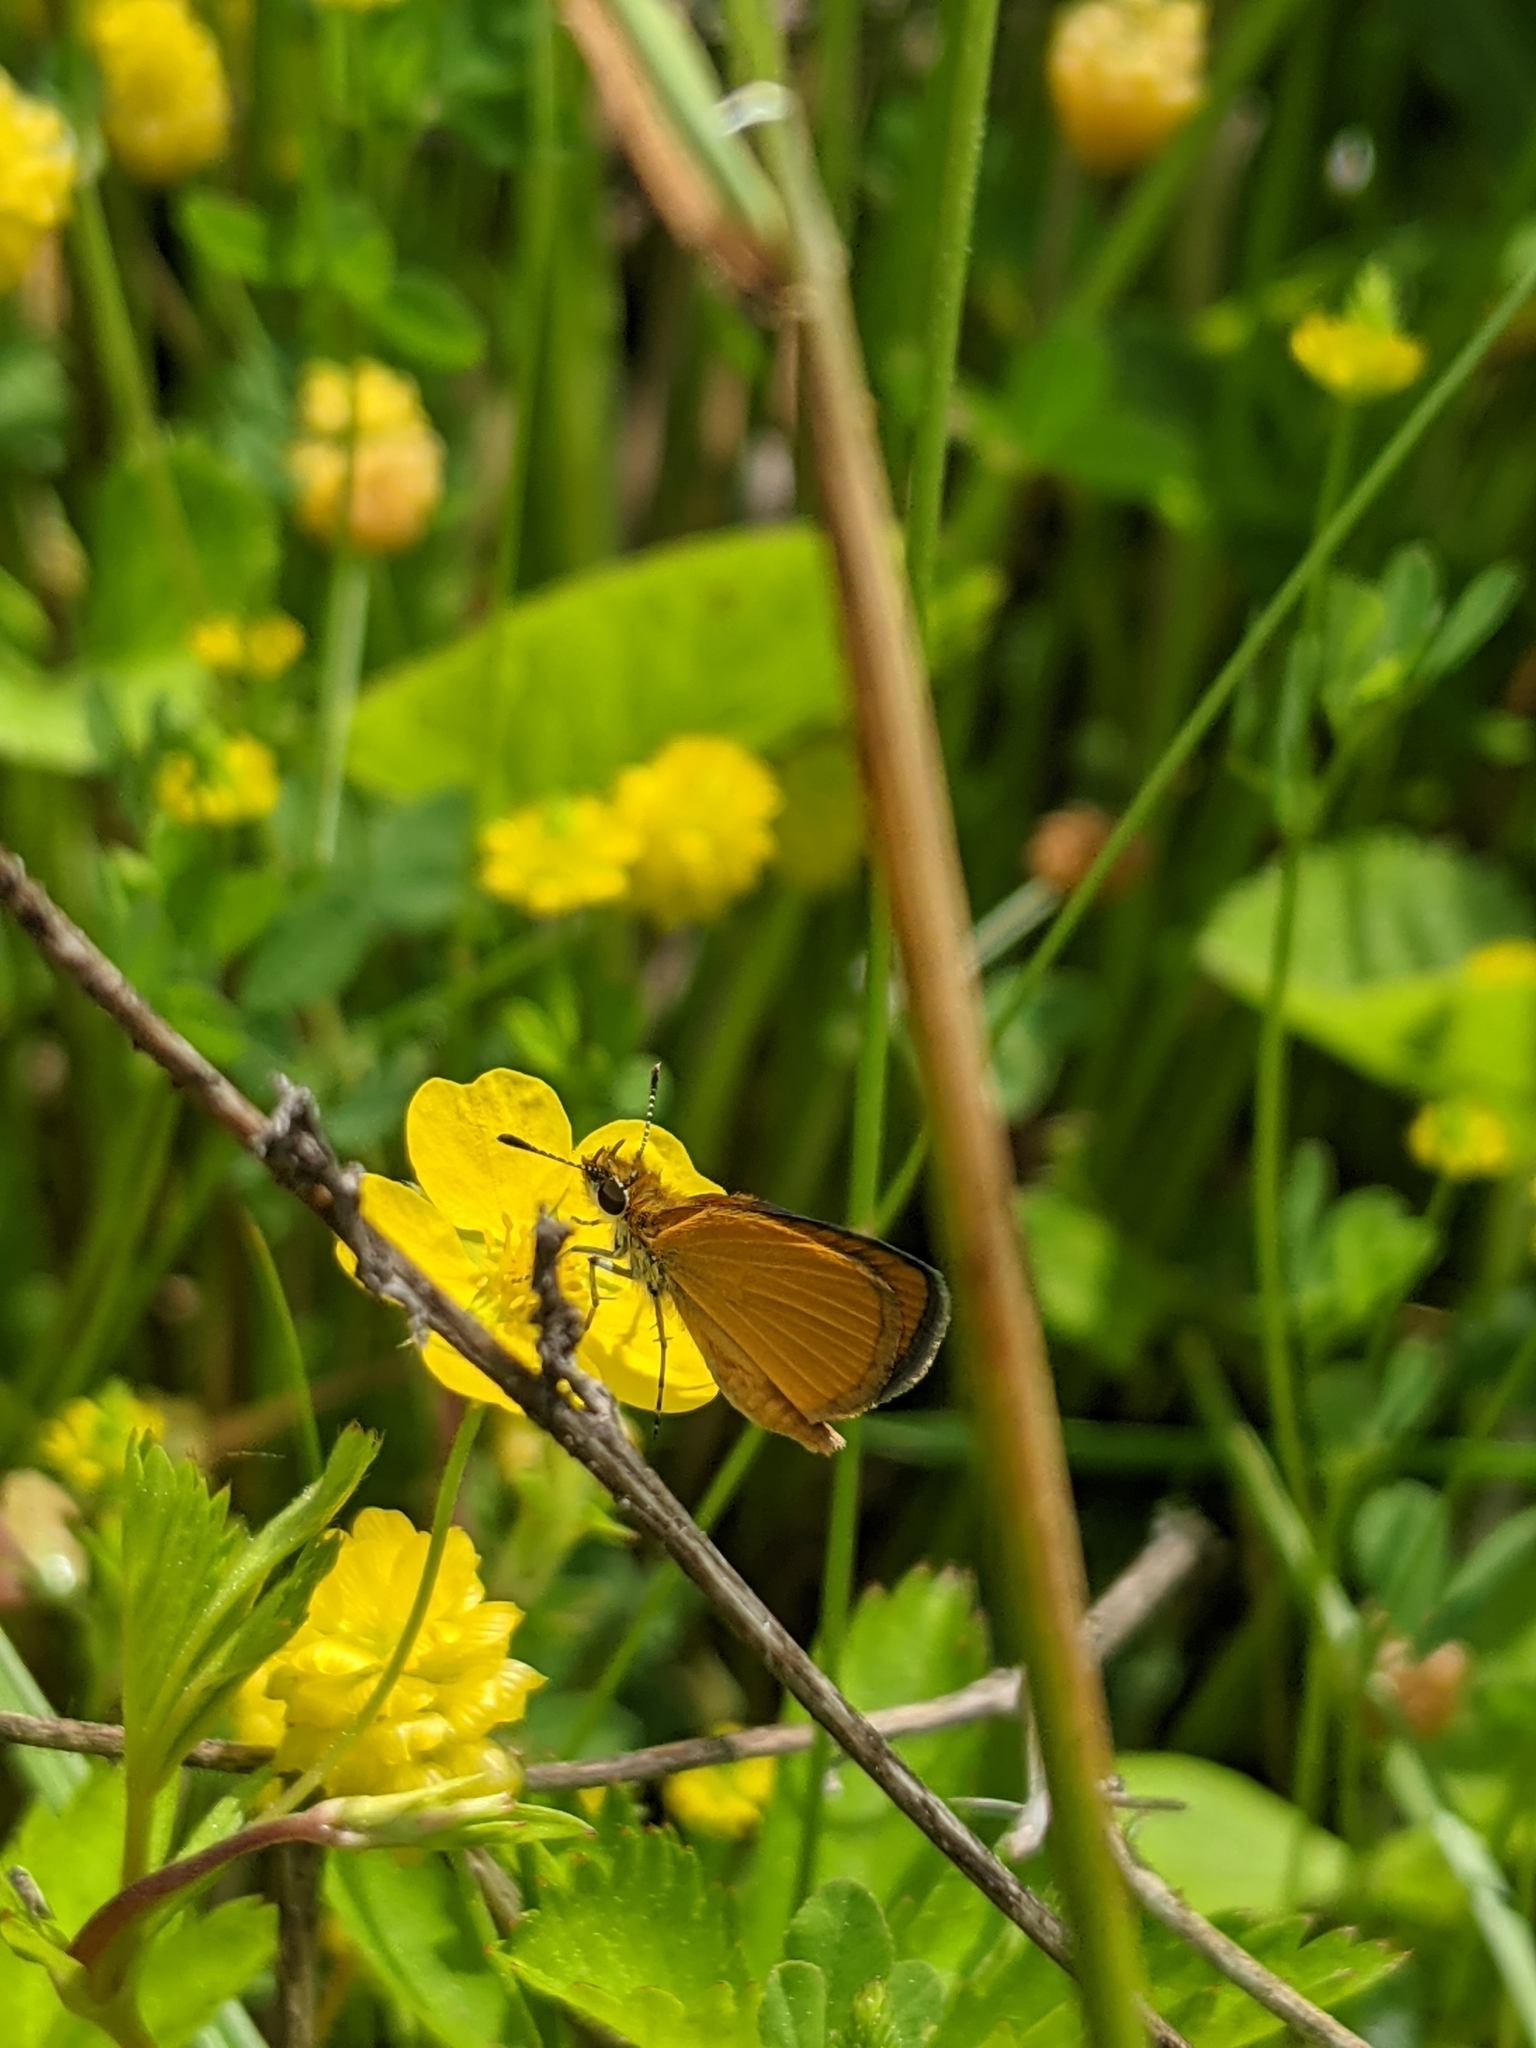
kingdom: Animalia
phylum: Arthropoda
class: Insecta
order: Lepidoptera
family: Hesperiidae
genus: Ancyloxypha
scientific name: Ancyloxypha numitor
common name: Least skipper
